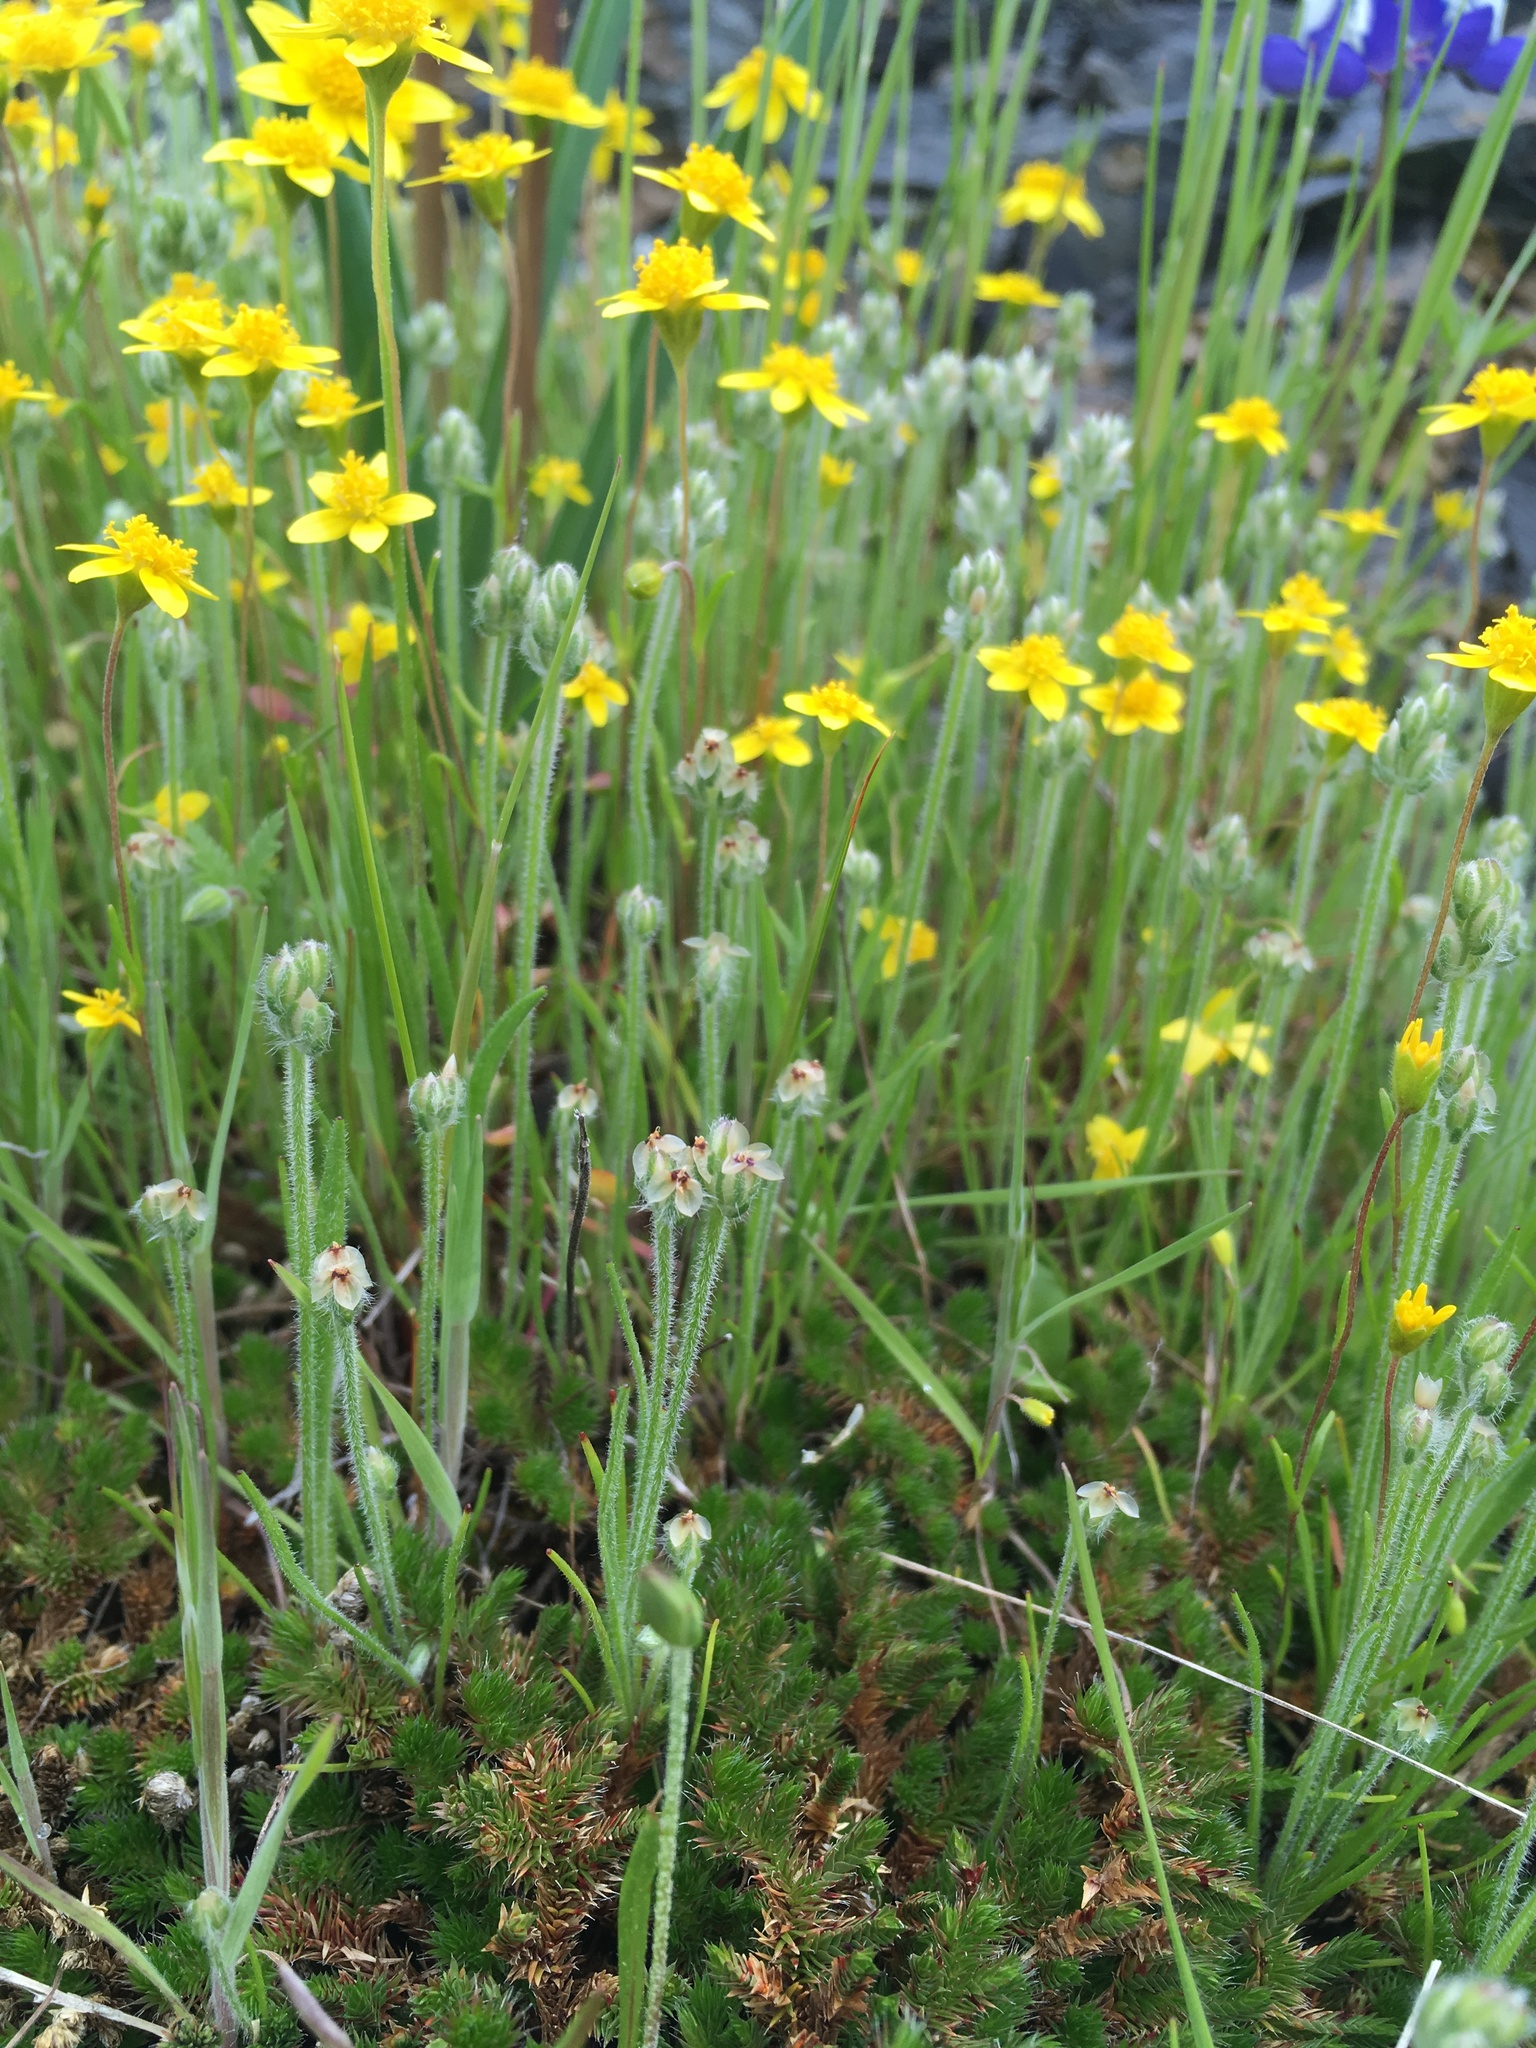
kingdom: Plantae
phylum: Tracheophyta
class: Magnoliopsida
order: Lamiales
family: Plantaginaceae
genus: Plantago
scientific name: Plantago erecta
